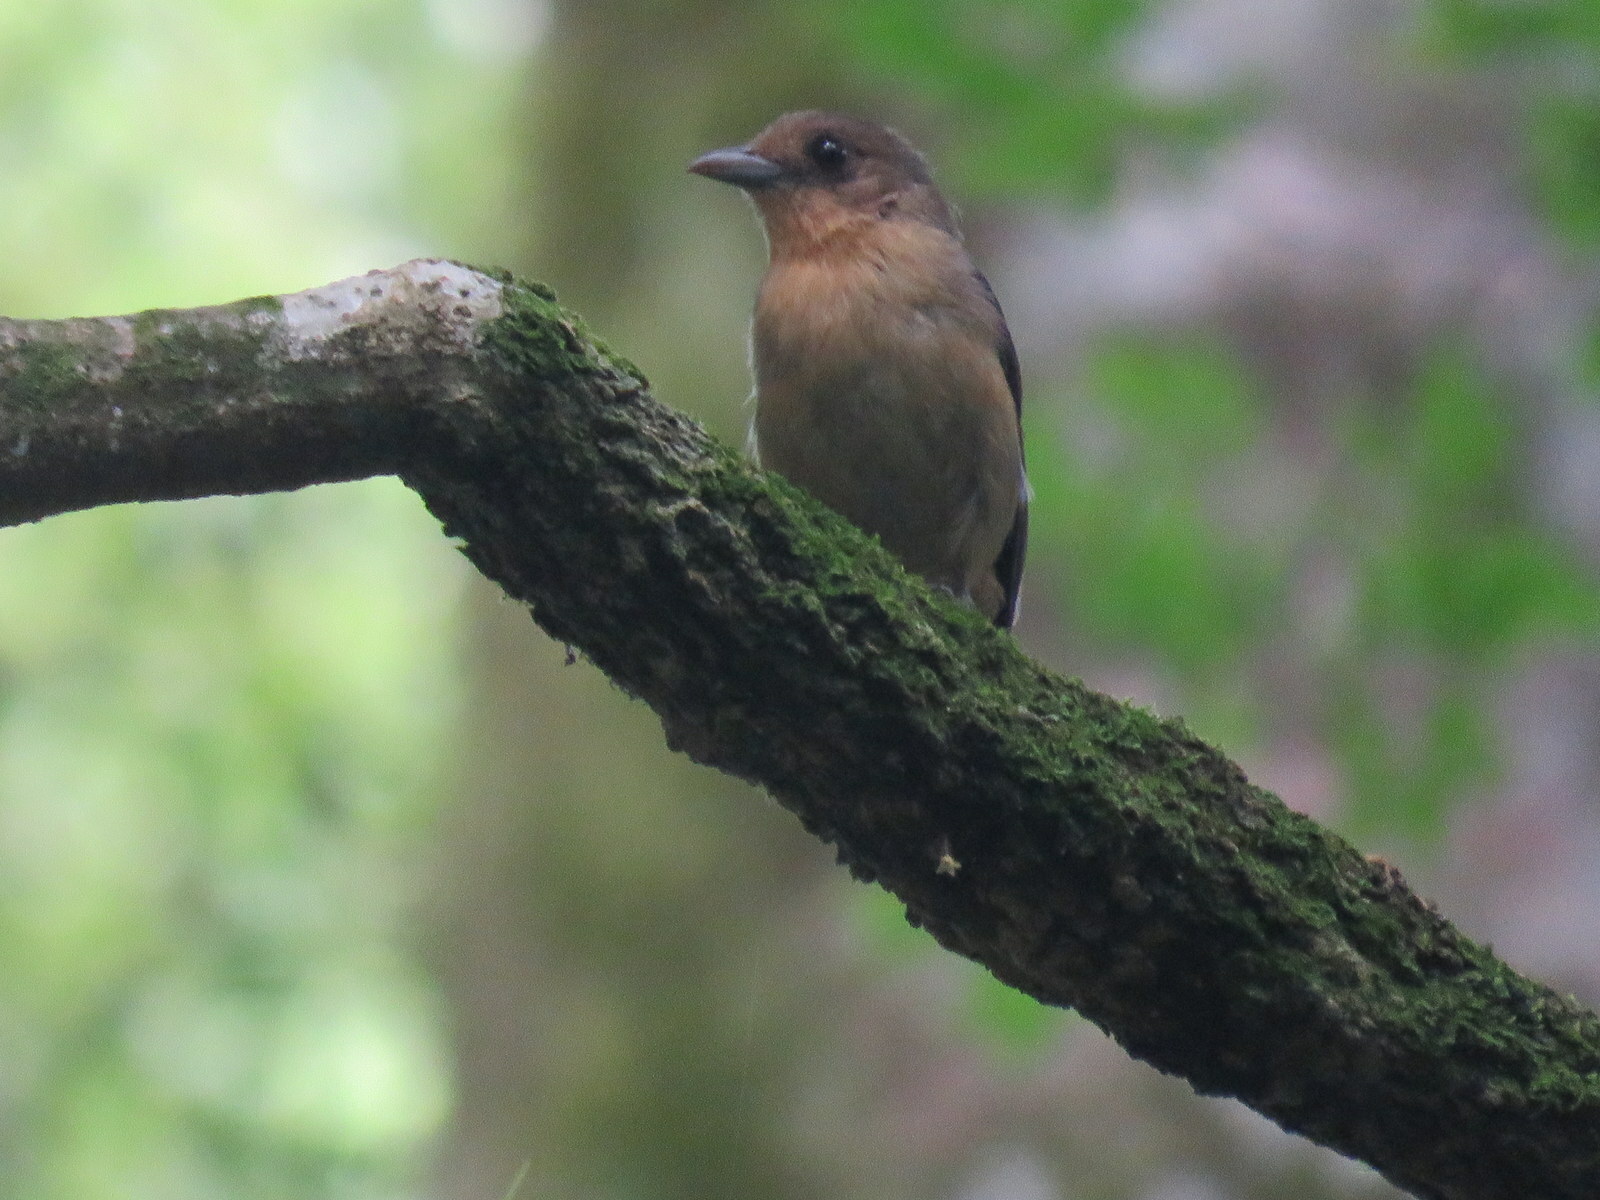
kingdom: Animalia
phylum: Chordata
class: Aves
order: Passeriformes
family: Thraupidae
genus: Trichothraupis
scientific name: Trichothraupis melanops
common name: Black-goggled tanager
